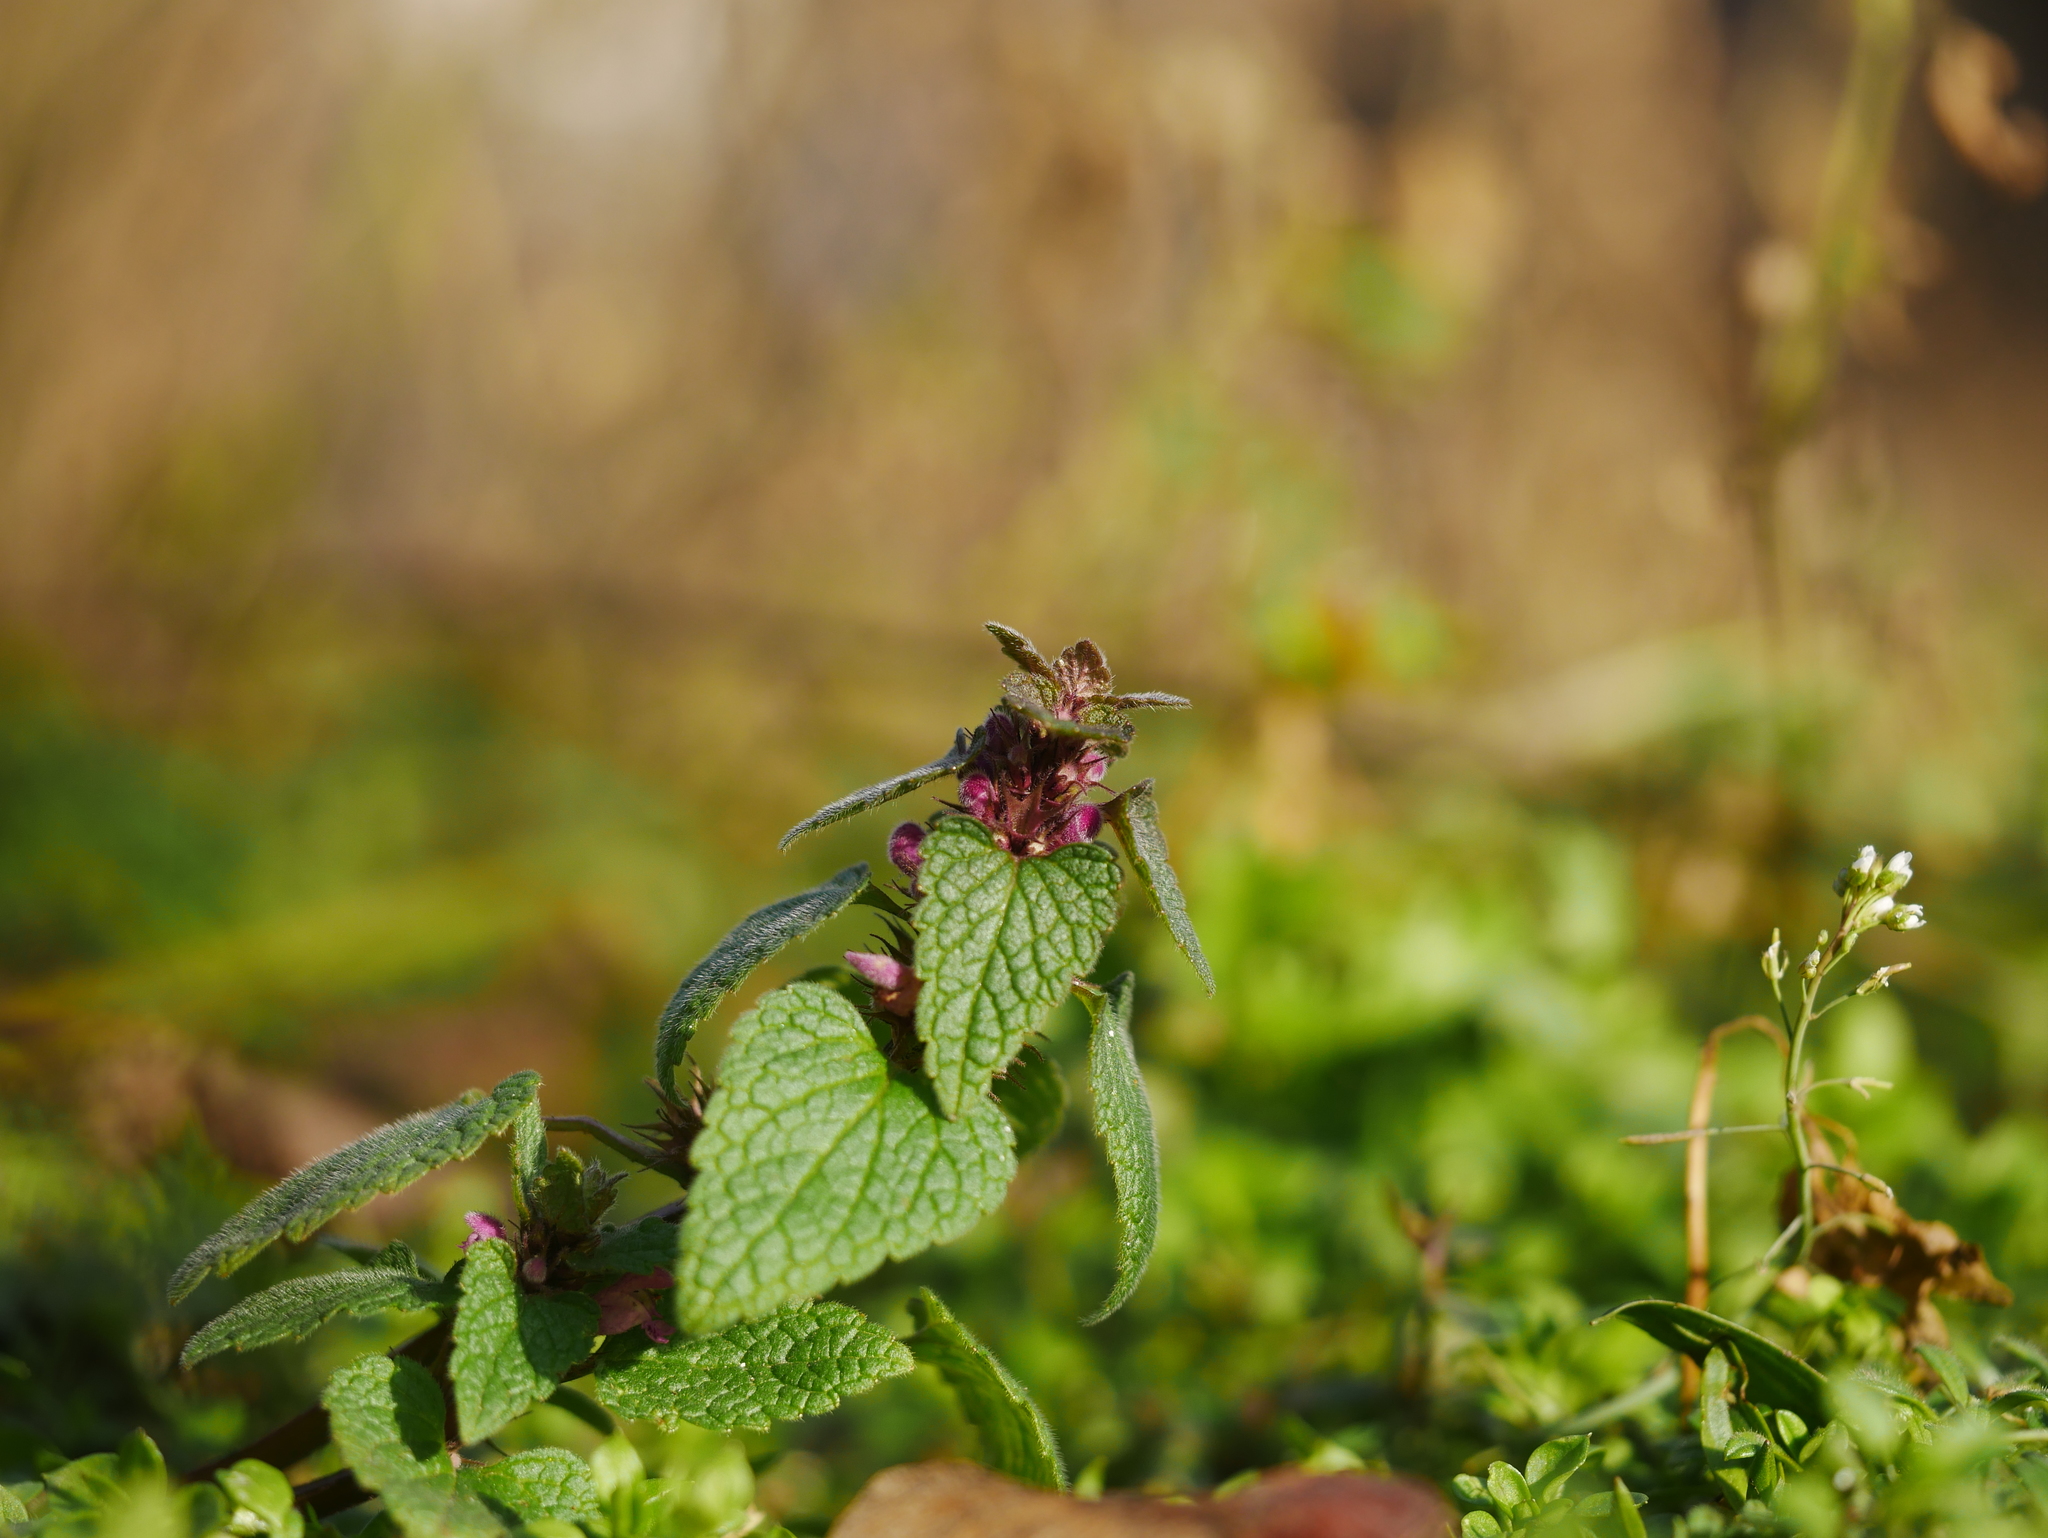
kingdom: Plantae
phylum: Tracheophyta
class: Magnoliopsida
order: Lamiales
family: Lamiaceae
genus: Lamium
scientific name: Lamium purpureum
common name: Red dead-nettle
